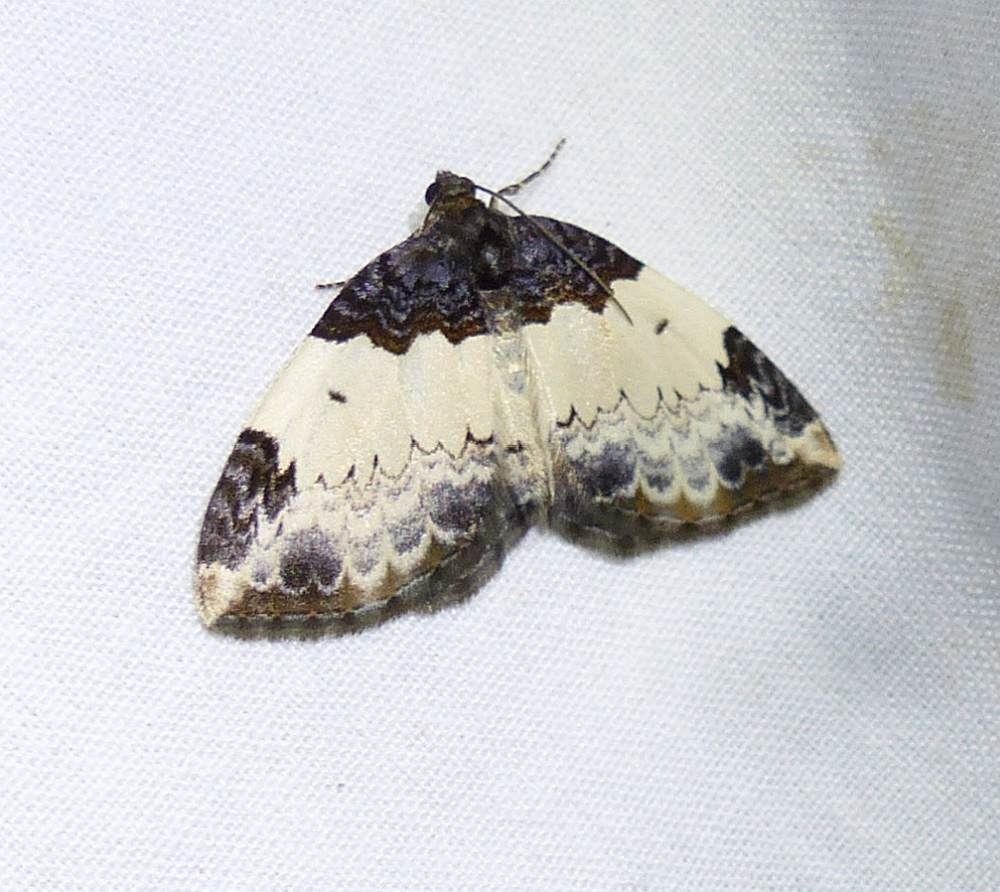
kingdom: Animalia
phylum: Arthropoda
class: Insecta
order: Lepidoptera
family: Geometridae
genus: Mesoleuca
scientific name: Mesoleuca ruficillata
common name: White-ribboned carpet moth
